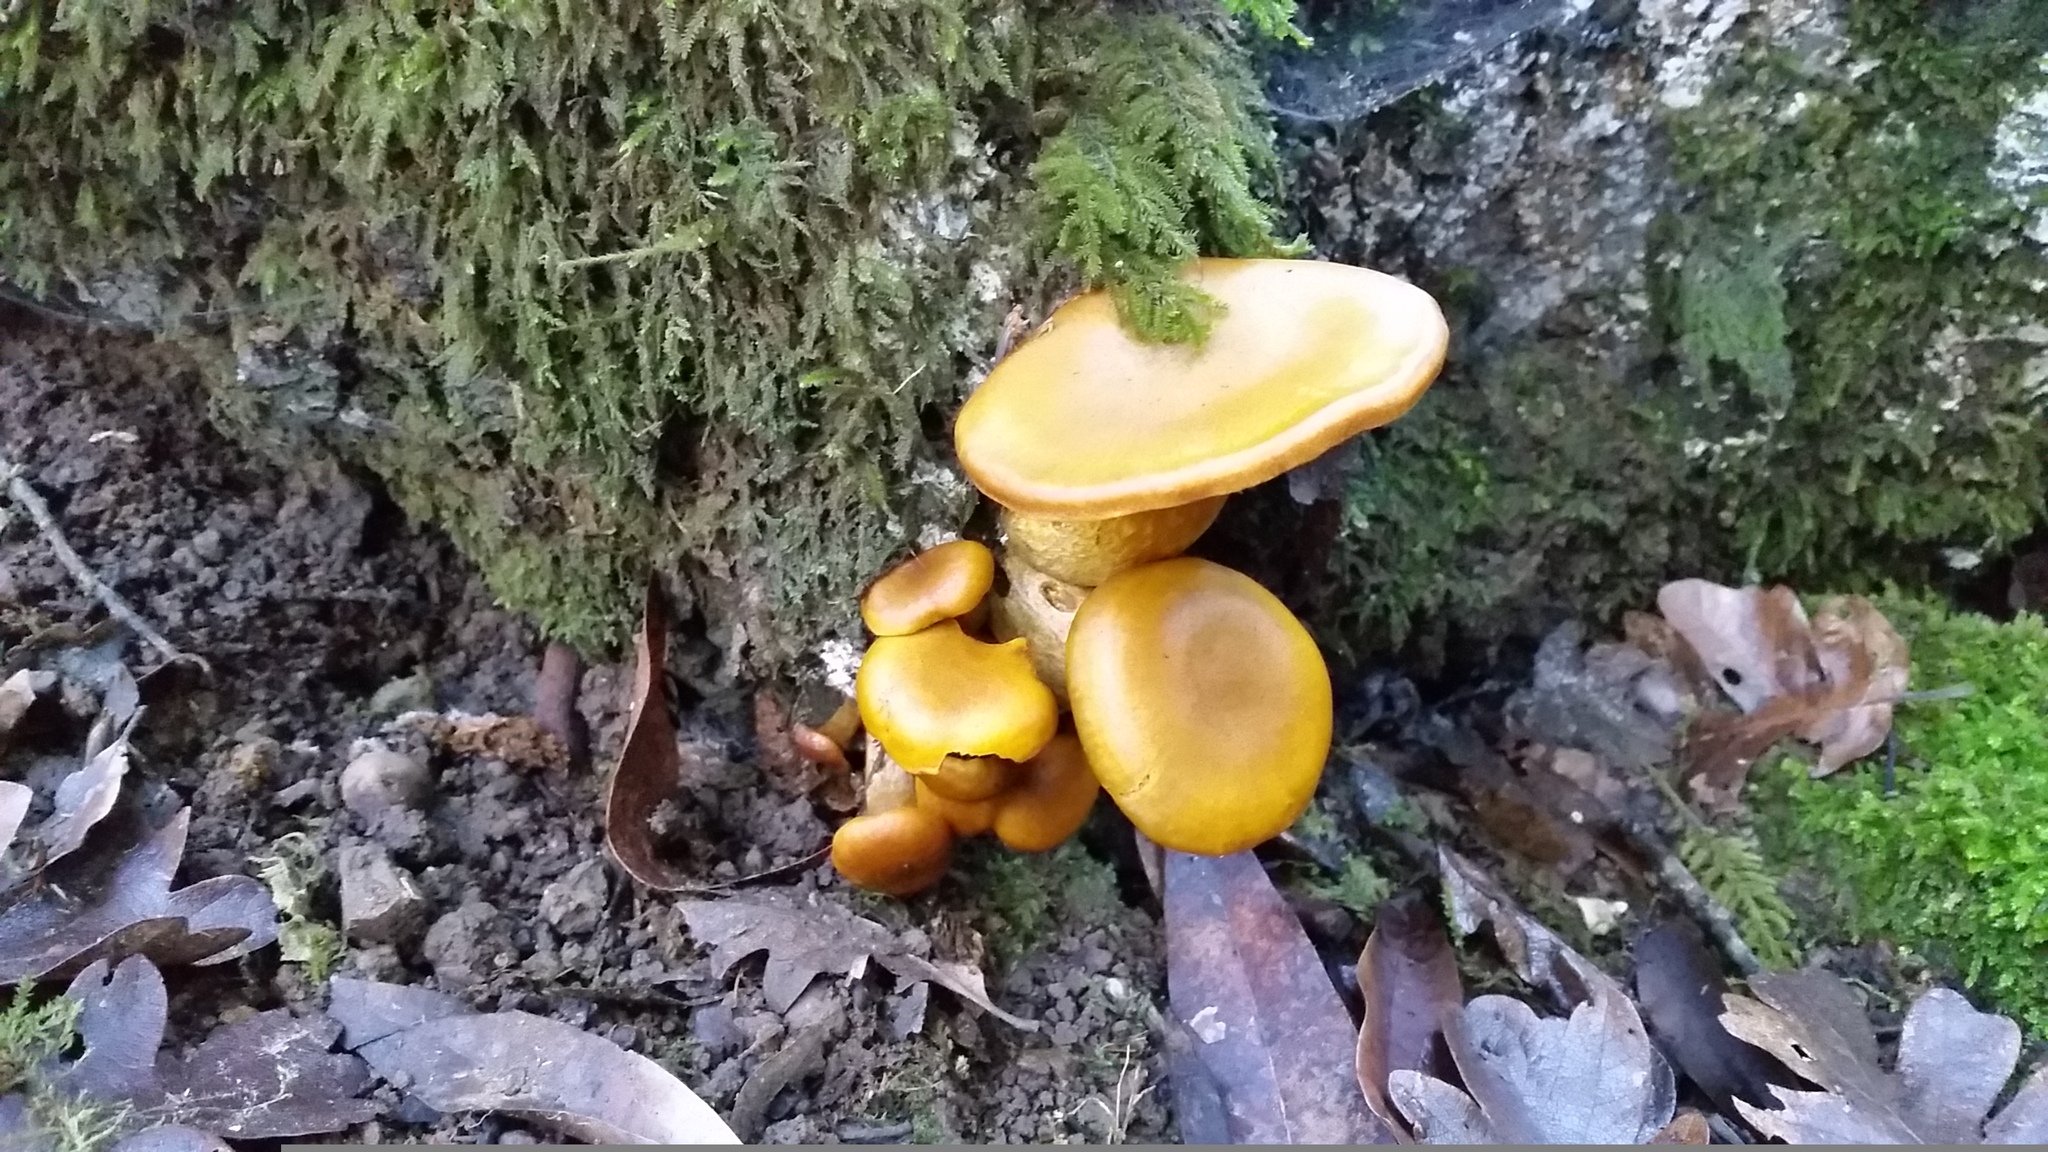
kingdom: Fungi
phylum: Basidiomycota
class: Agaricomycetes
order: Agaricales
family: Omphalotaceae
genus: Omphalotus
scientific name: Omphalotus olivascens
